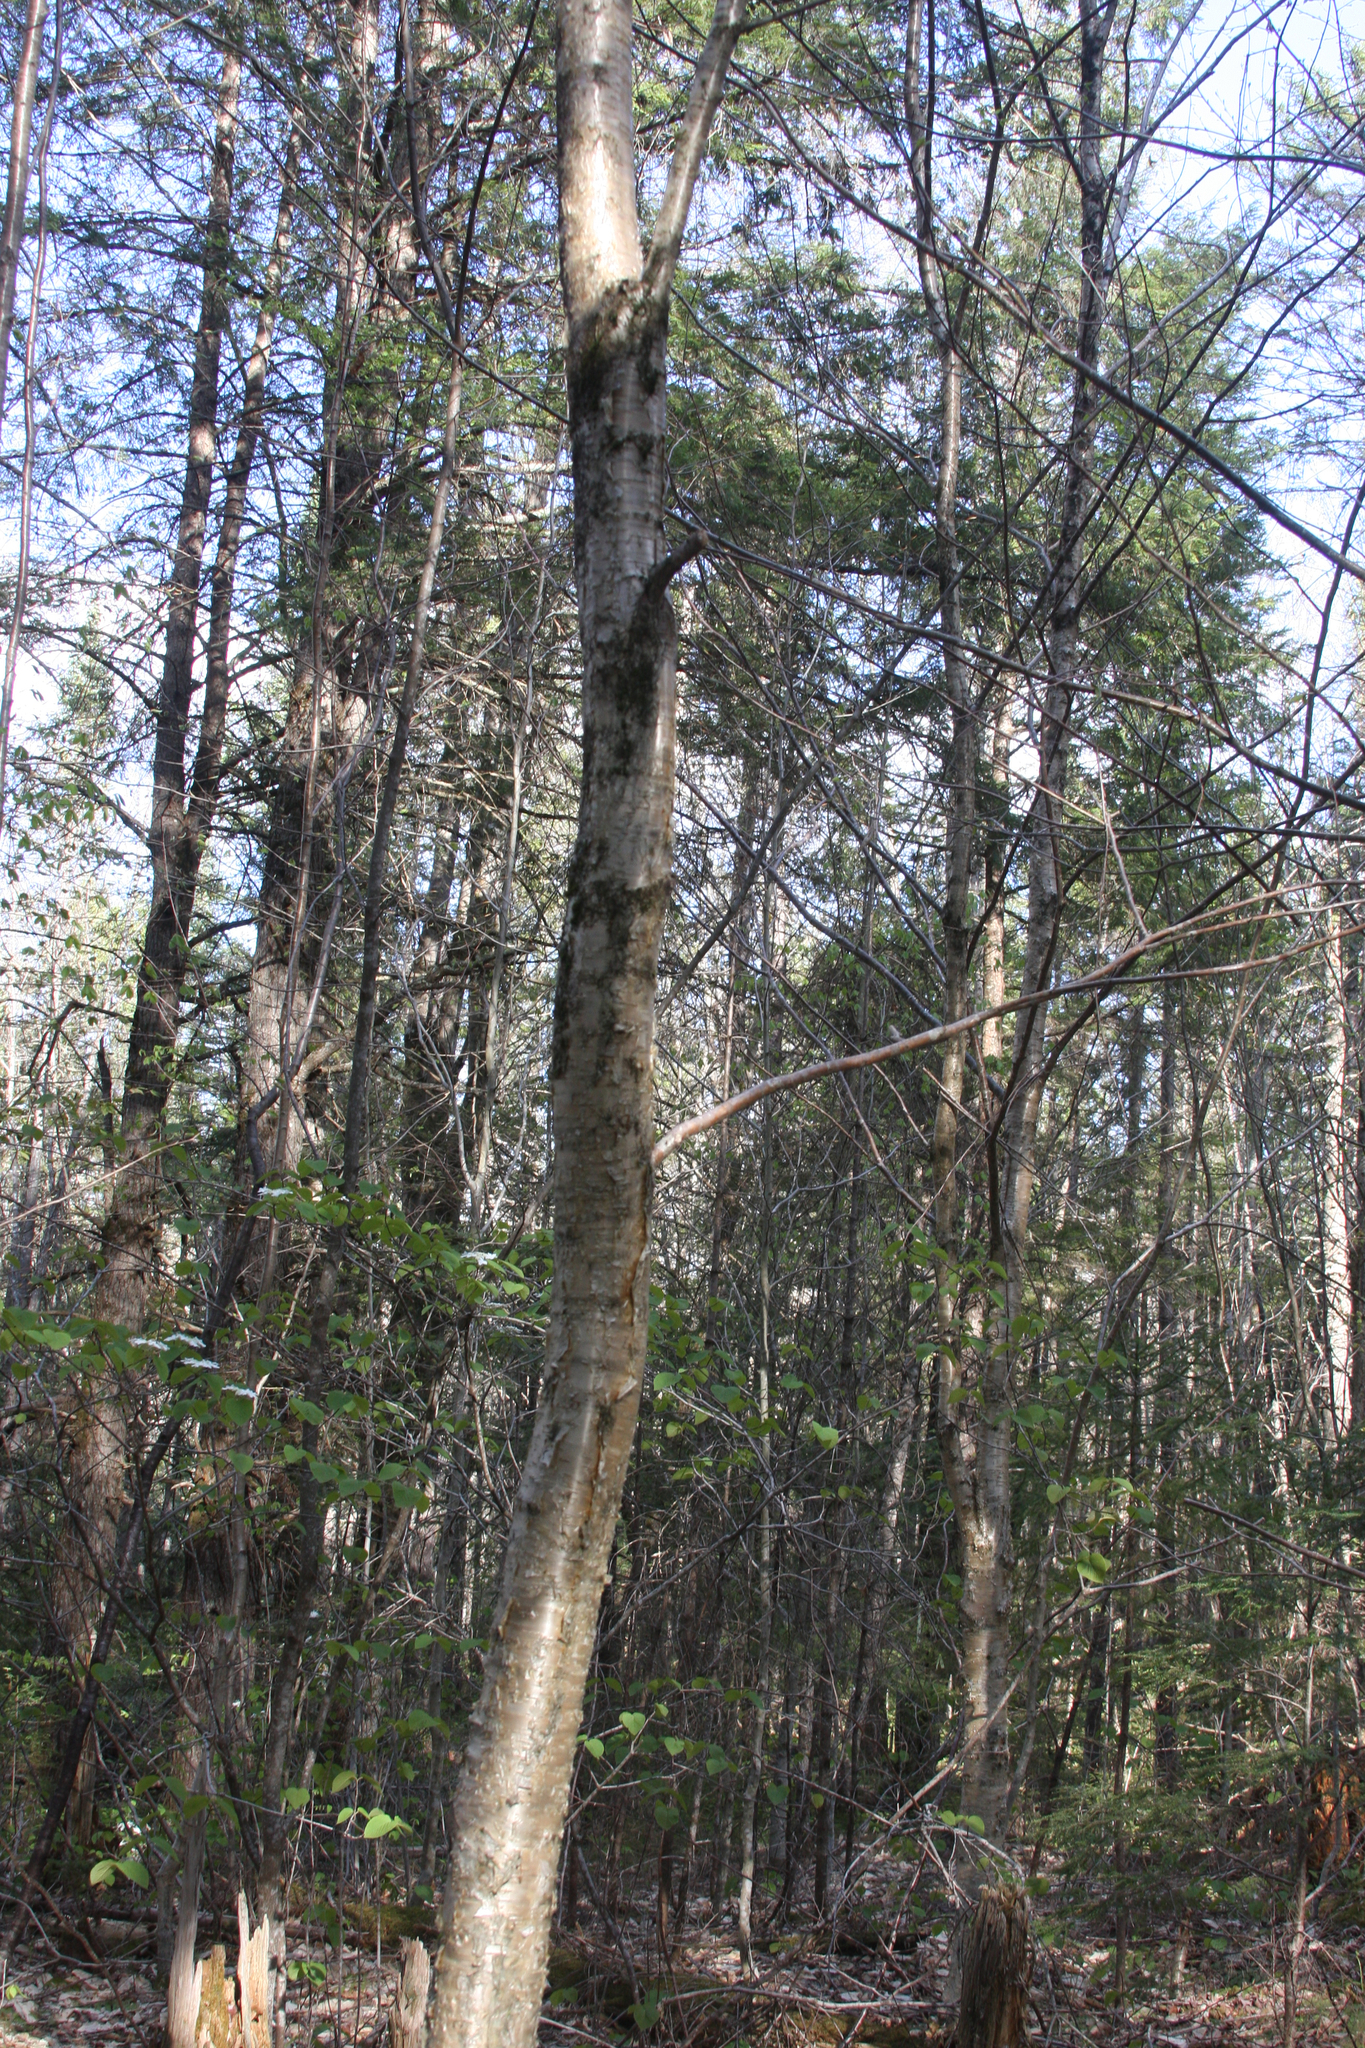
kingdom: Plantae
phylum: Tracheophyta
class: Magnoliopsida
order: Fagales
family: Betulaceae
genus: Betula
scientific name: Betula alleghaniensis
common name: Yellow birch
